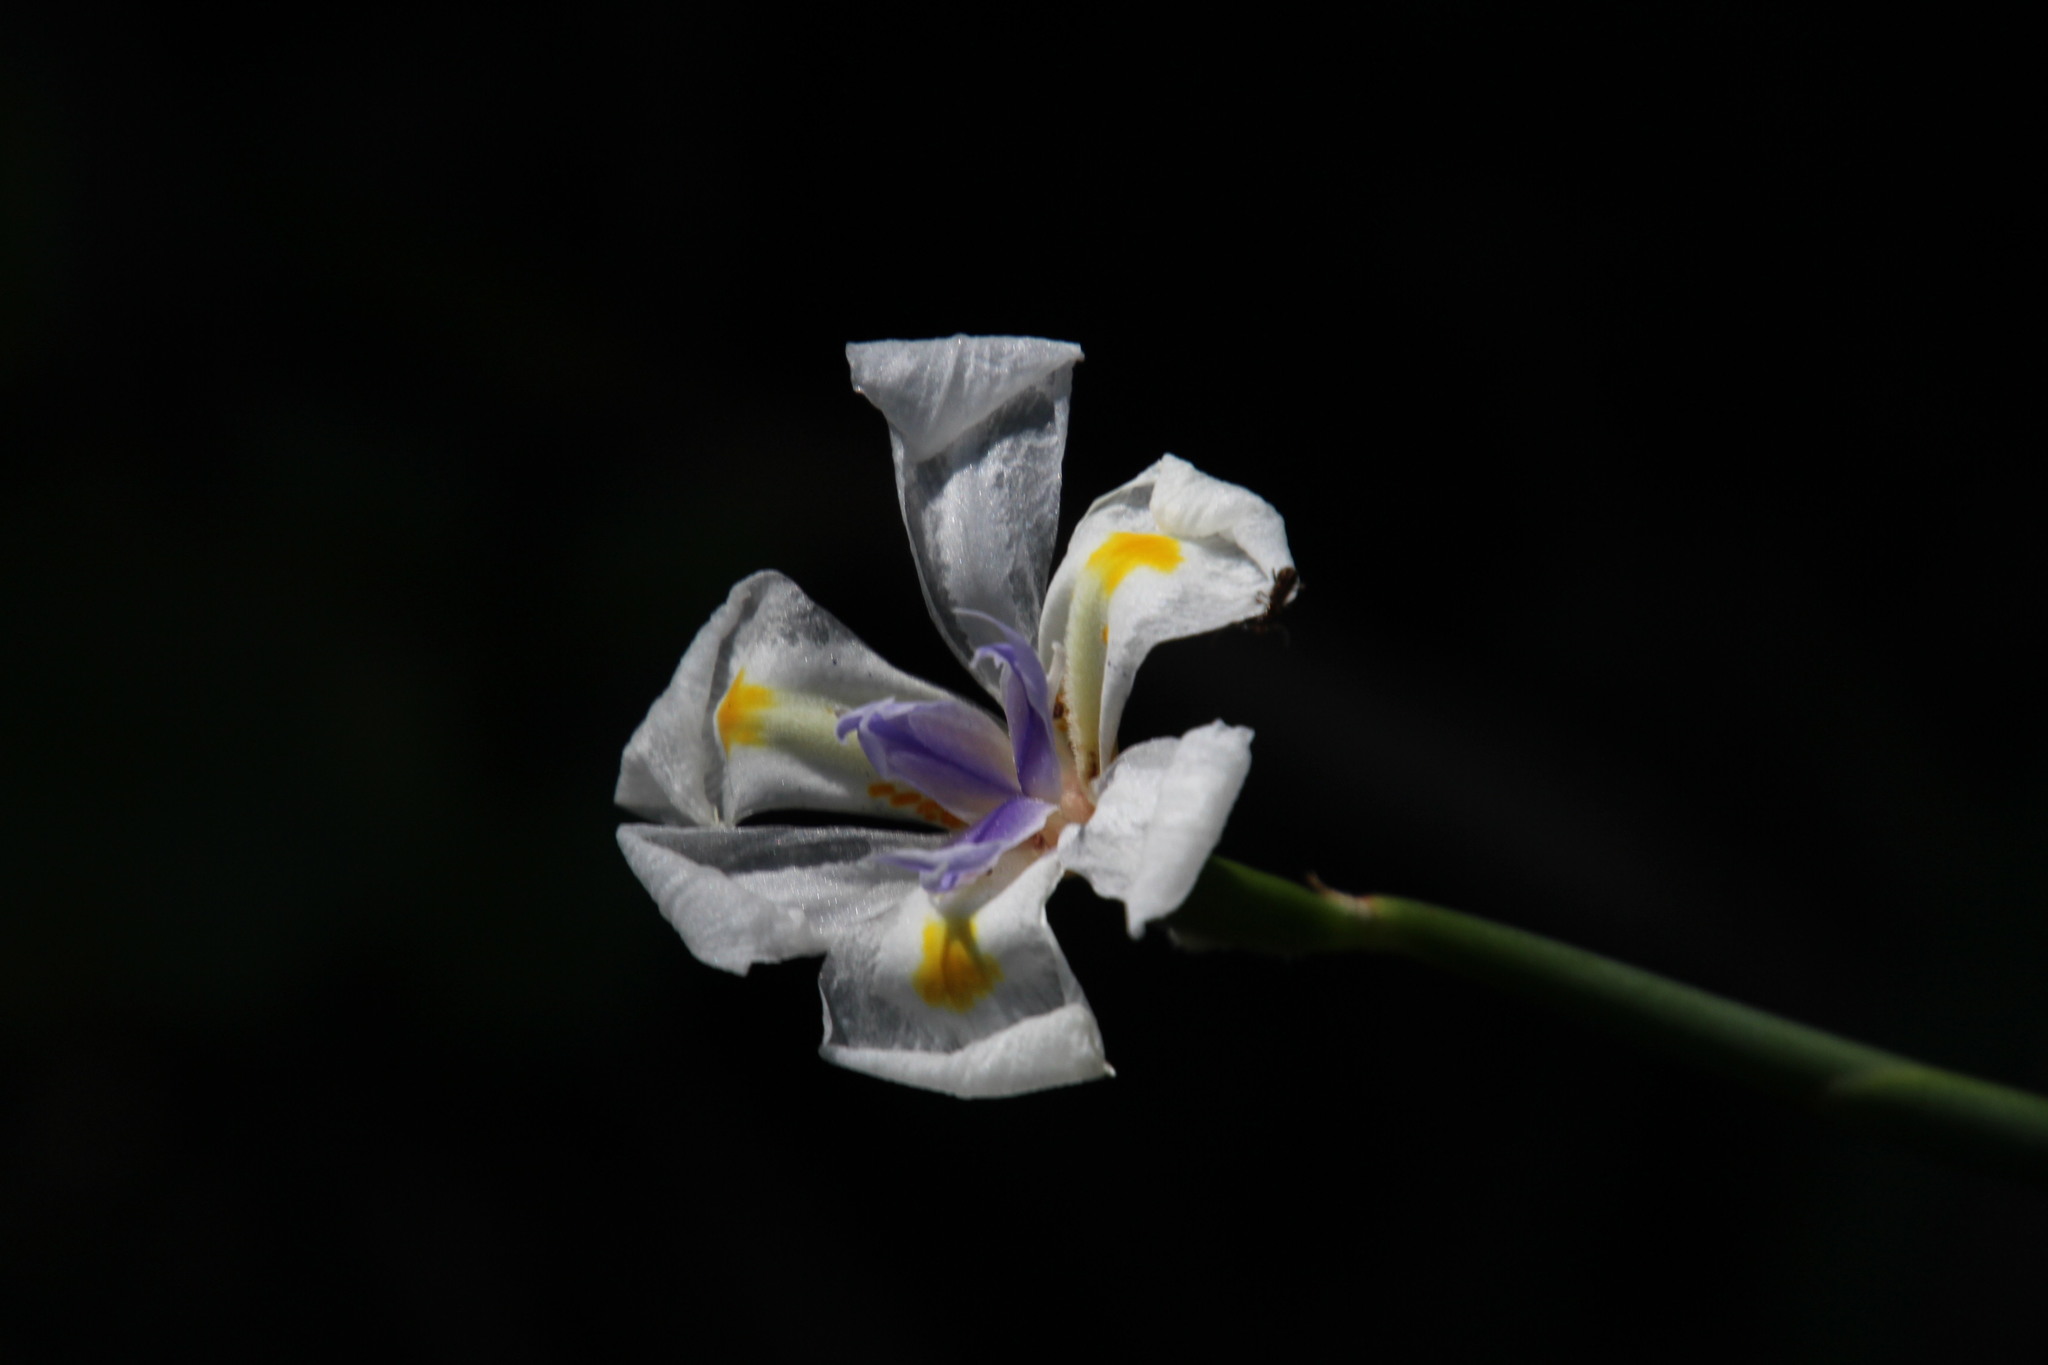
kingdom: Plantae
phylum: Tracheophyta
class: Liliopsida
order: Asparagales
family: Iridaceae
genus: Dietes
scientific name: Dietes iridioides
